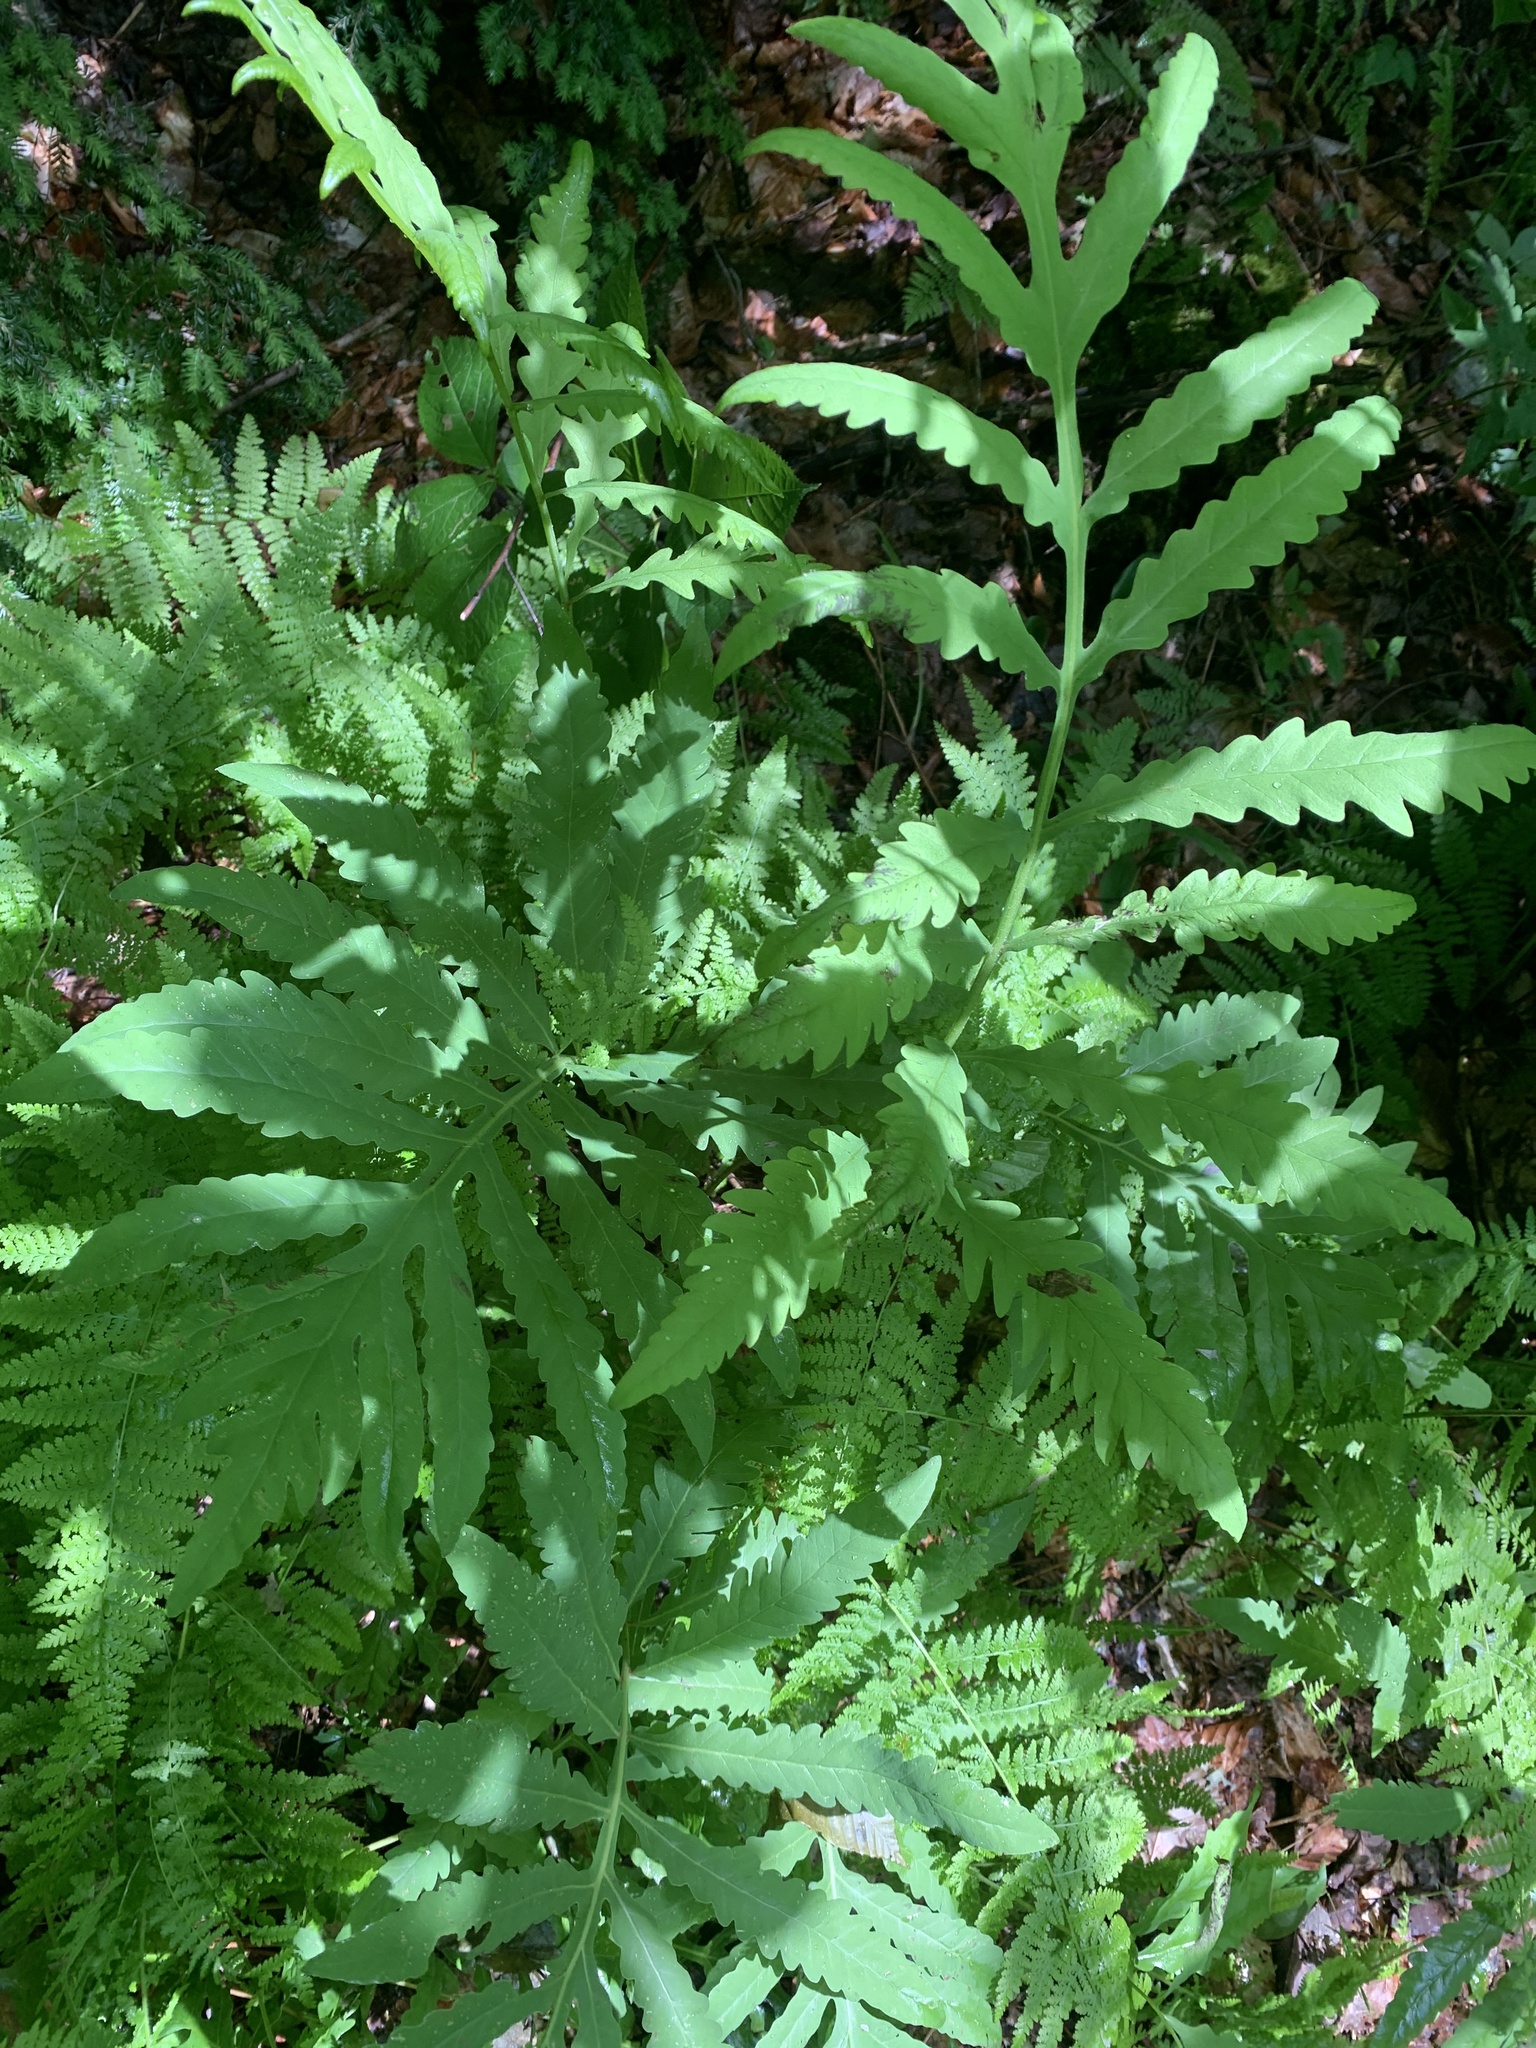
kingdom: Plantae
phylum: Tracheophyta
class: Polypodiopsida
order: Polypodiales
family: Onocleaceae
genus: Onoclea
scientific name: Onoclea sensibilis
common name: Sensitive fern
